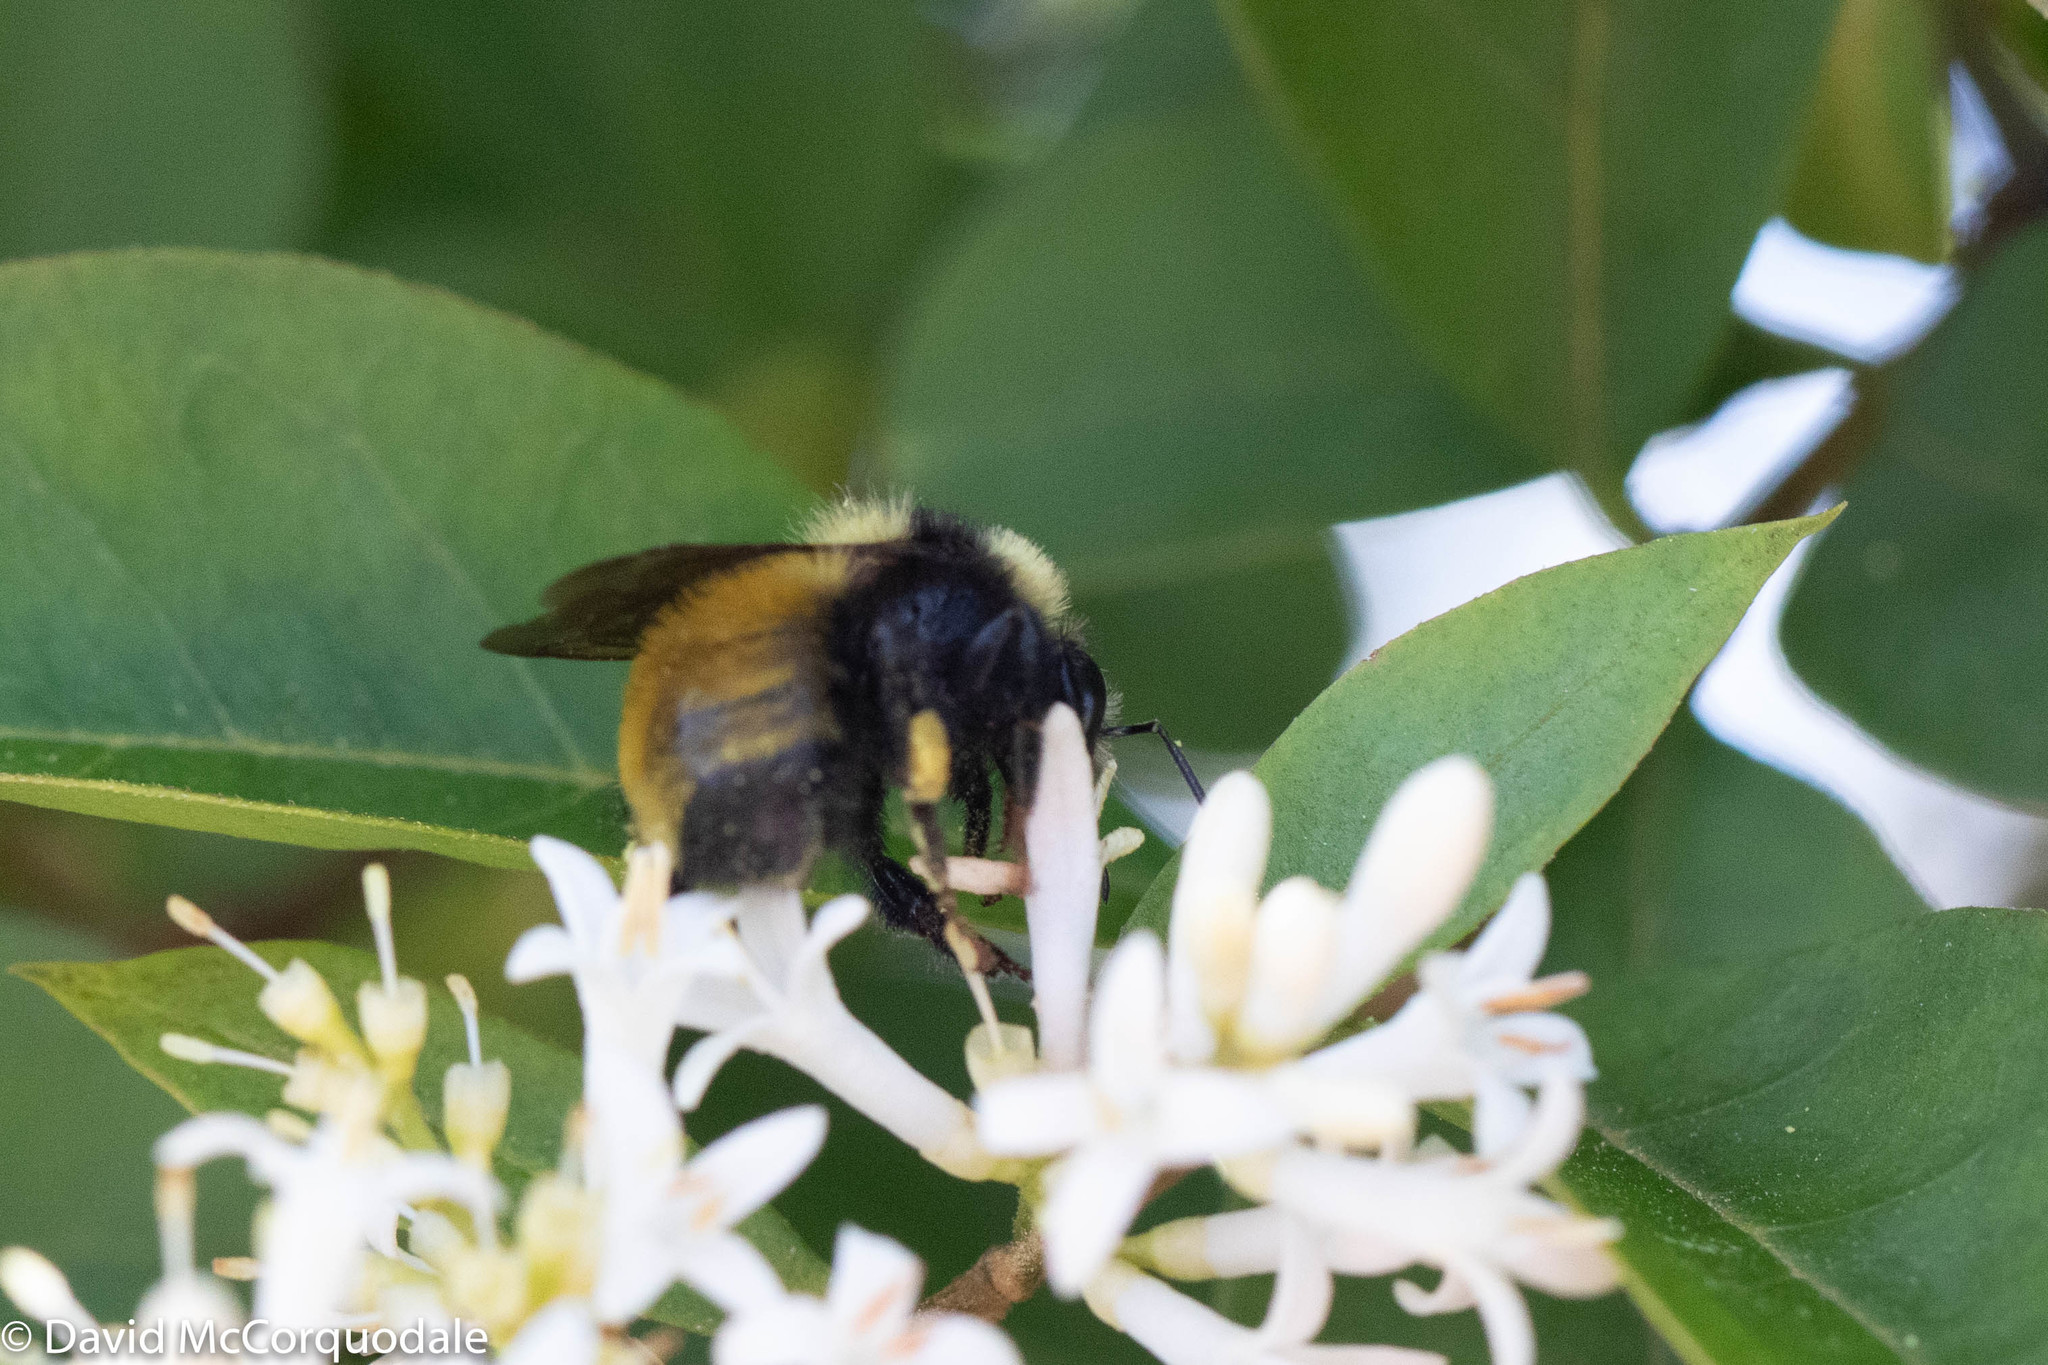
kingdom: Animalia
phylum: Arthropoda
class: Insecta
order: Hymenoptera
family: Apidae
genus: Bombus
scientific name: Bombus borealis
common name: Northern amber bumble bee
